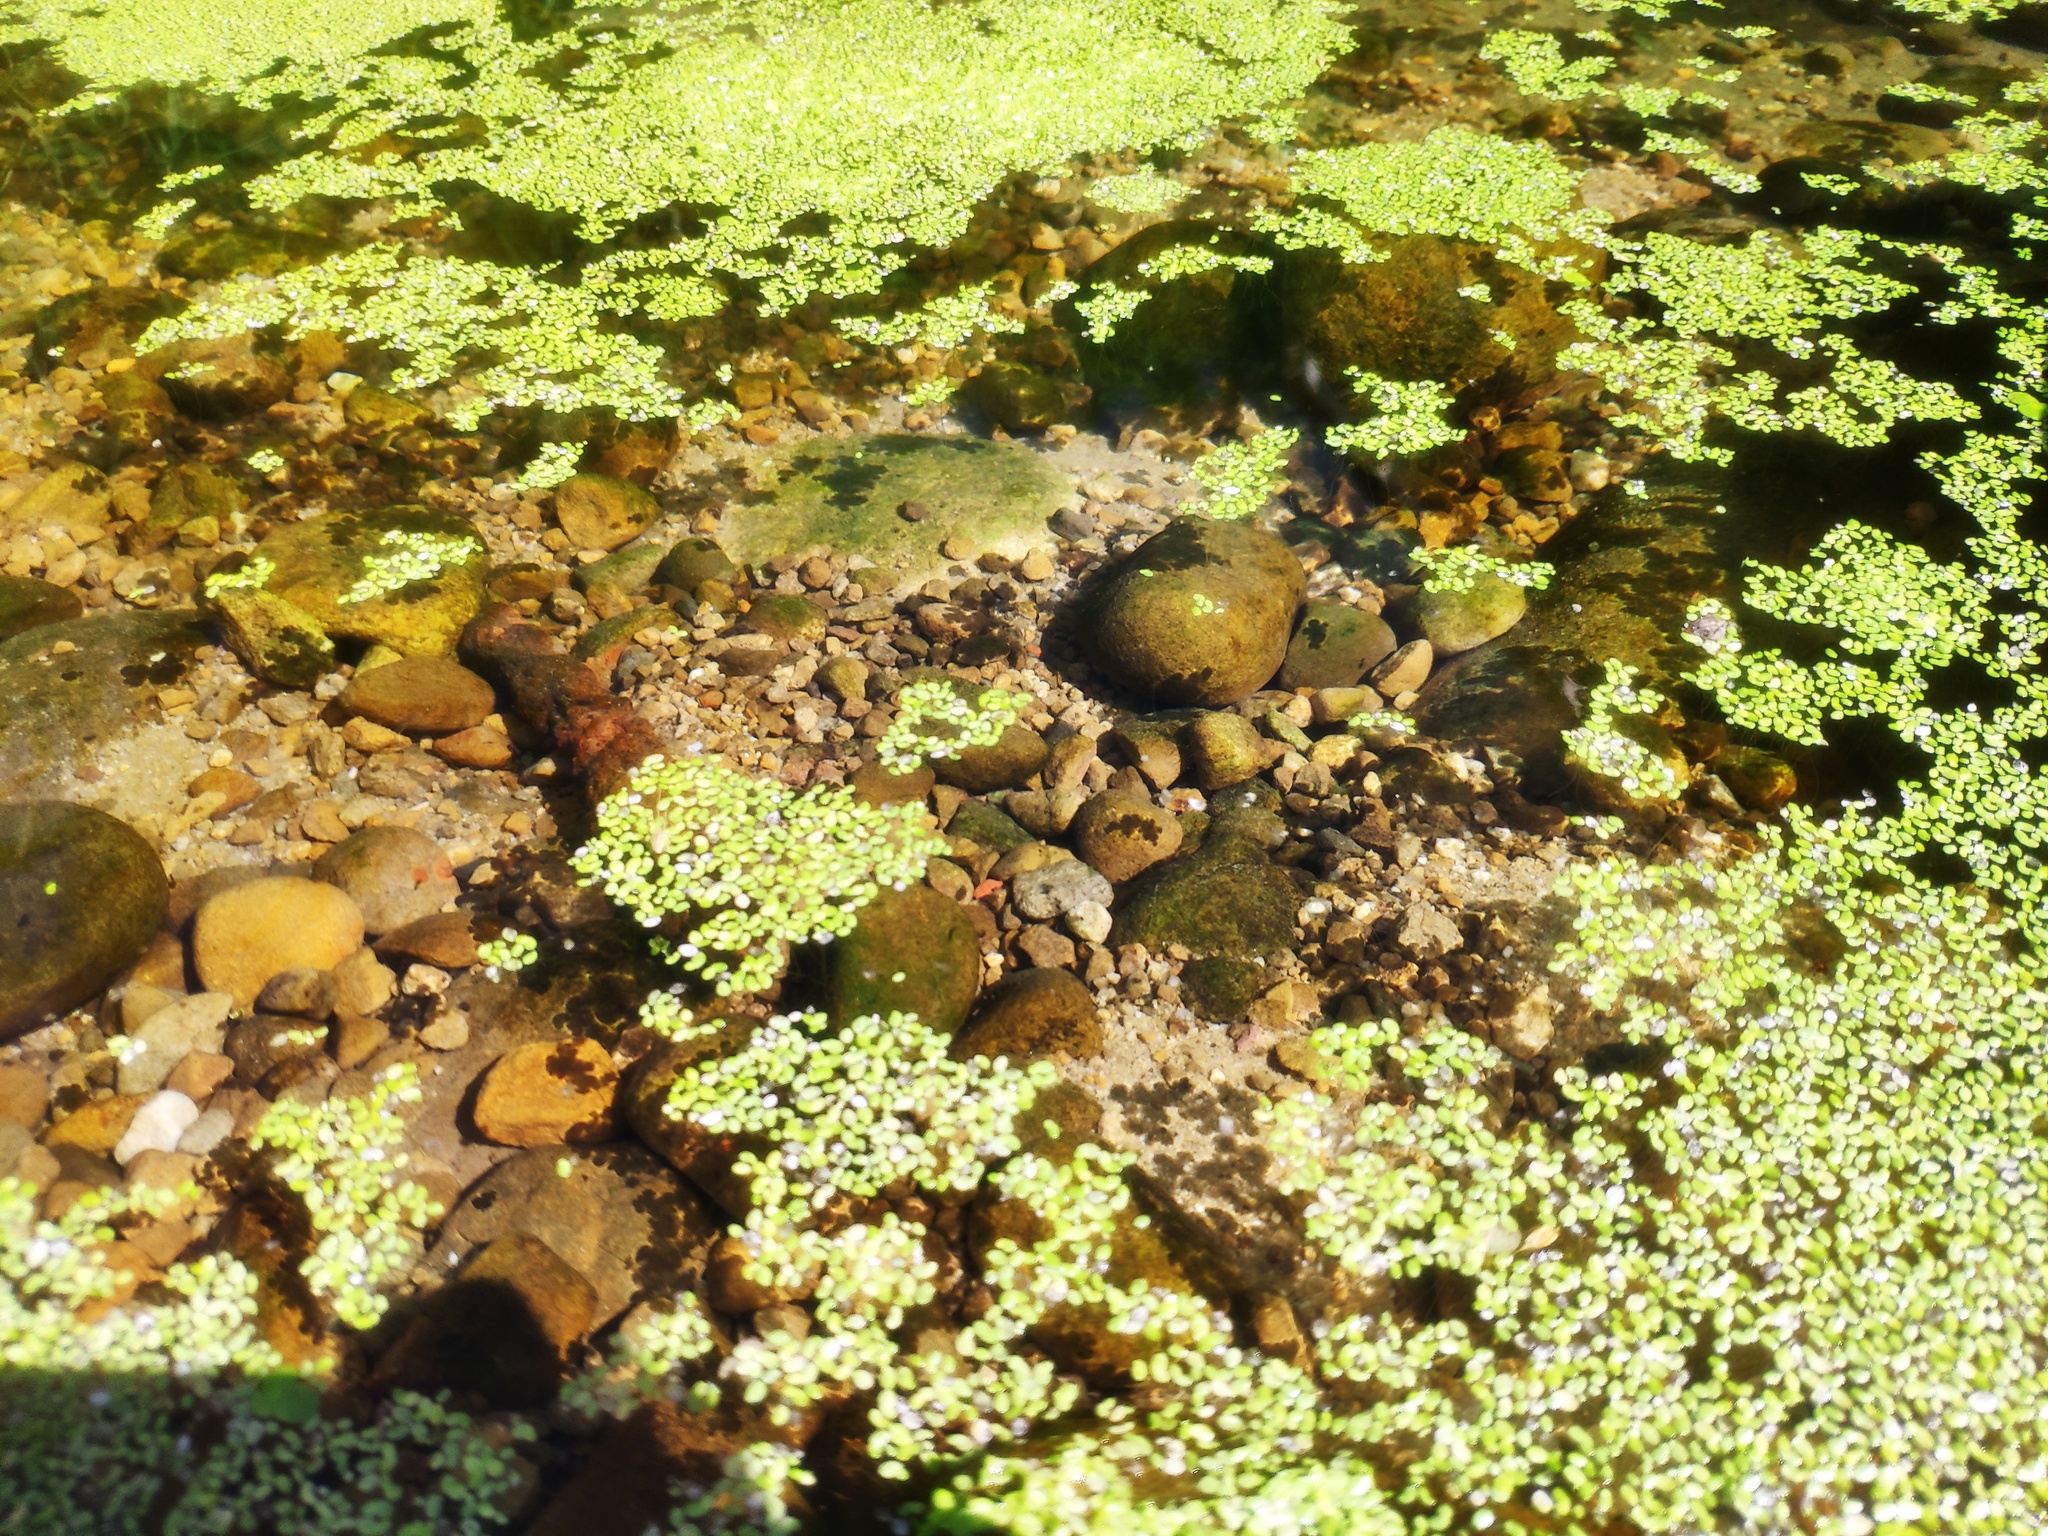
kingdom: Plantae
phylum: Tracheophyta
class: Liliopsida
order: Alismatales
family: Araceae
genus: Lemna
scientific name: Lemna aequinoctialis
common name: Duckweed
